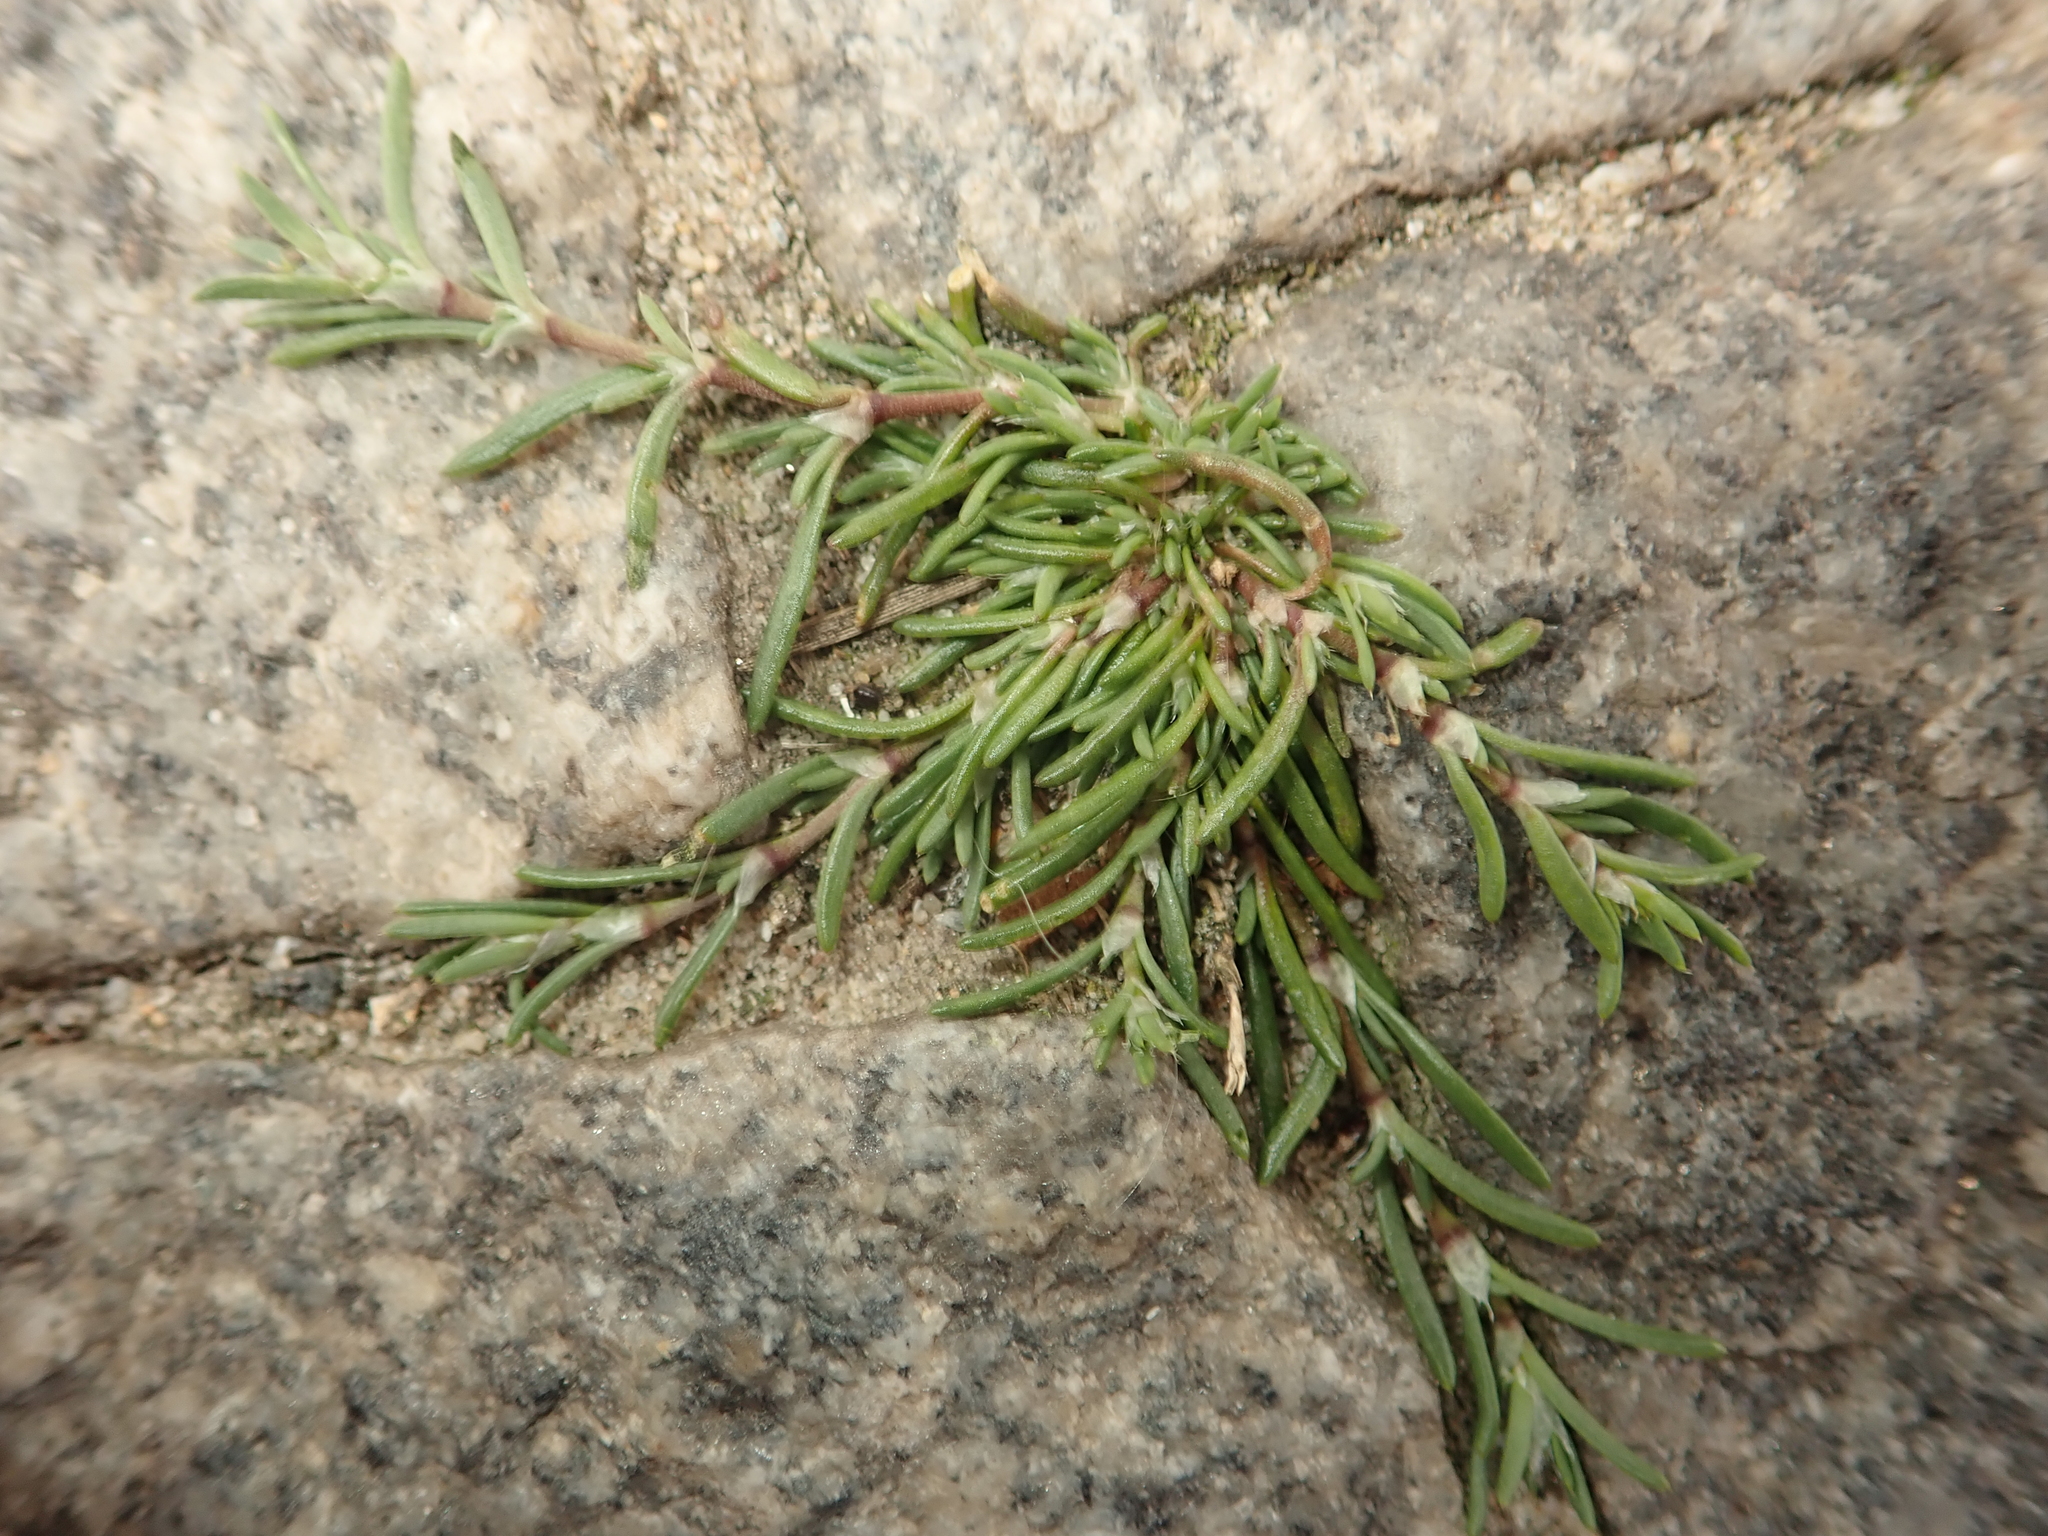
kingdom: Plantae
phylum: Tracheophyta
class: Magnoliopsida
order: Caryophyllales
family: Caryophyllaceae
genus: Spergularia
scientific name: Spergularia rubra
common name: Red sand-spurrey
